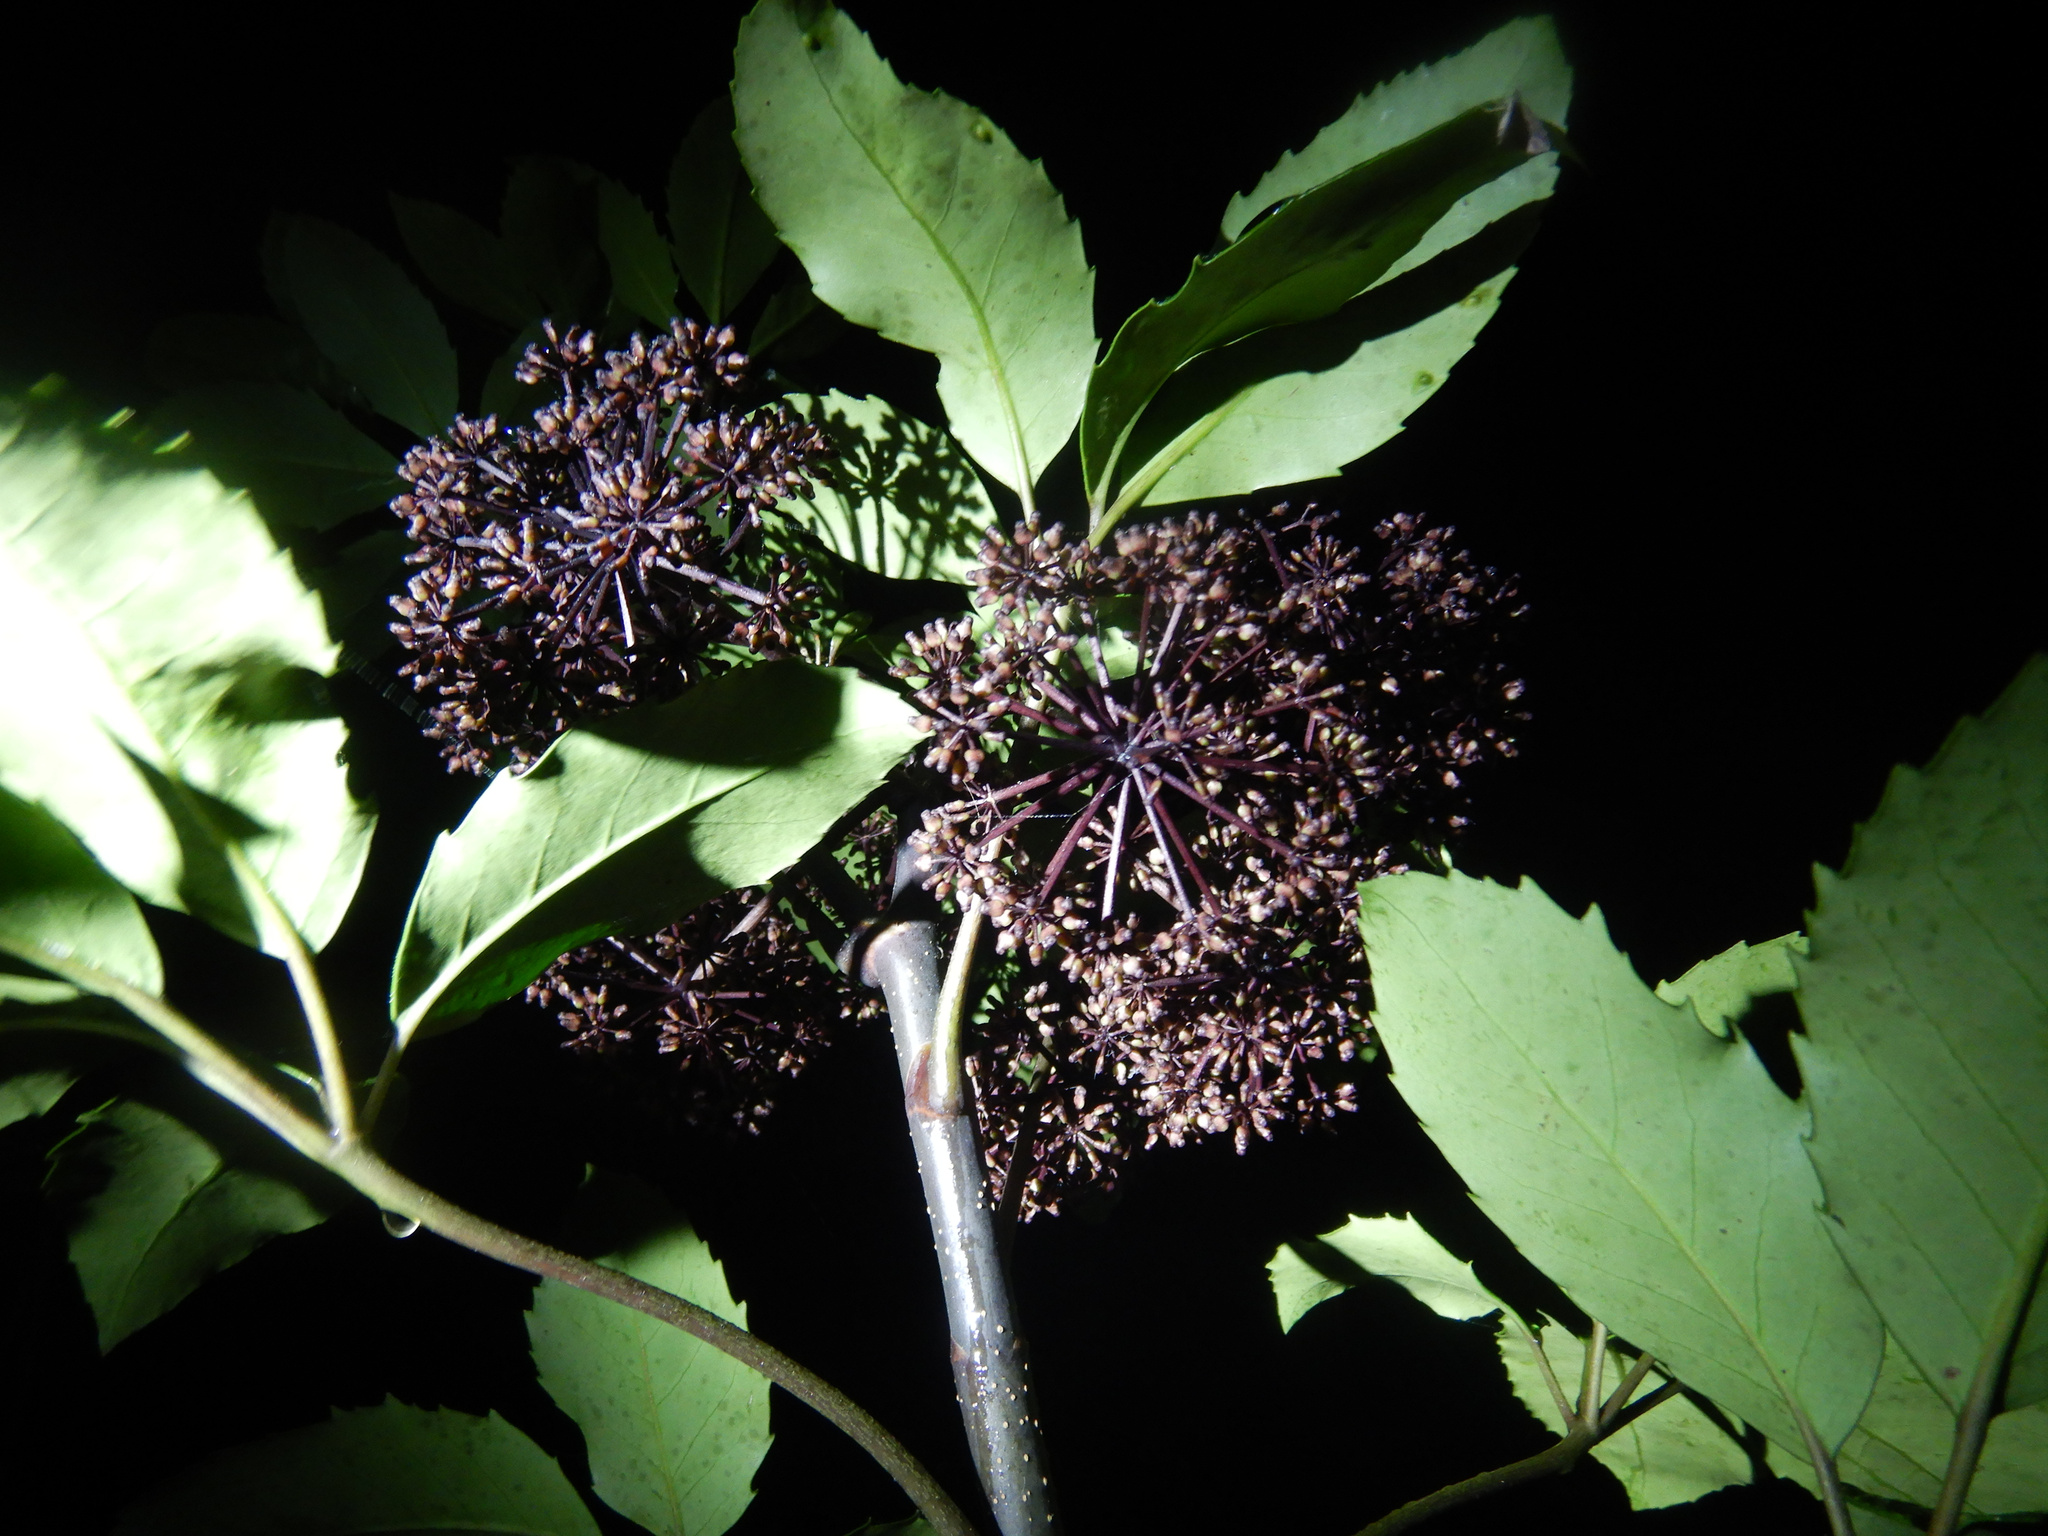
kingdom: Plantae
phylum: Tracheophyta
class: Magnoliopsida
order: Apiales
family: Araliaceae
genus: Neopanax
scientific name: Neopanax arboreus
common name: Five-fingers
